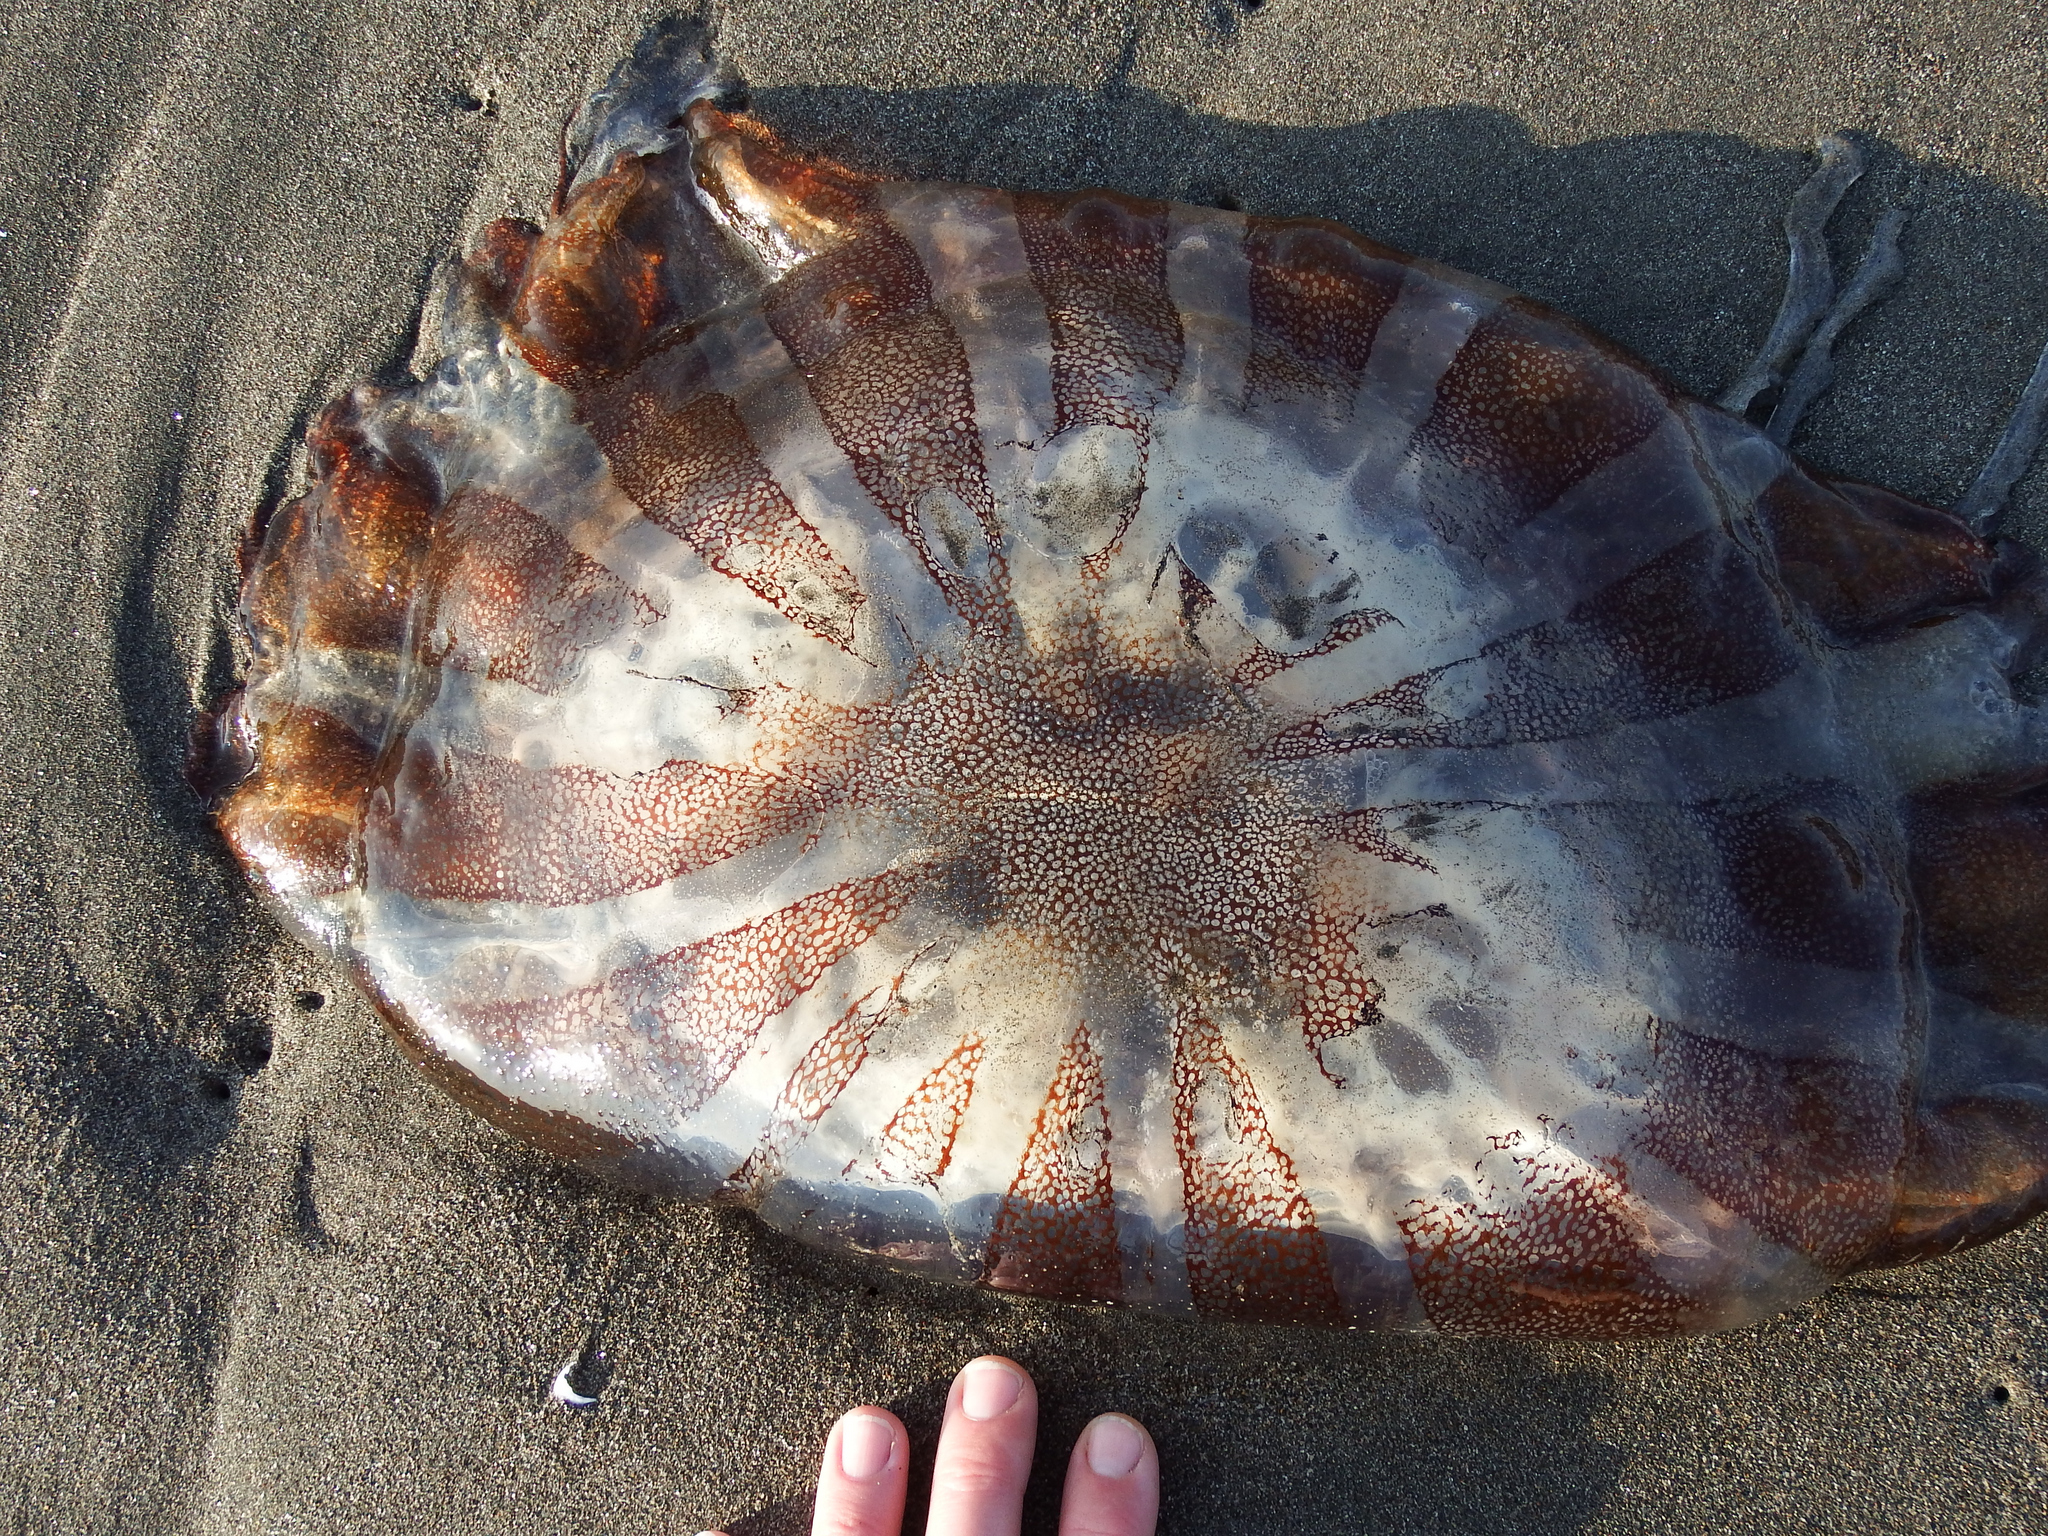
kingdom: Animalia
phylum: Cnidaria
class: Scyphozoa
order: Semaeostomeae
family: Pelagiidae
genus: Chrysaora
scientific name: Chrysaora plocamia
